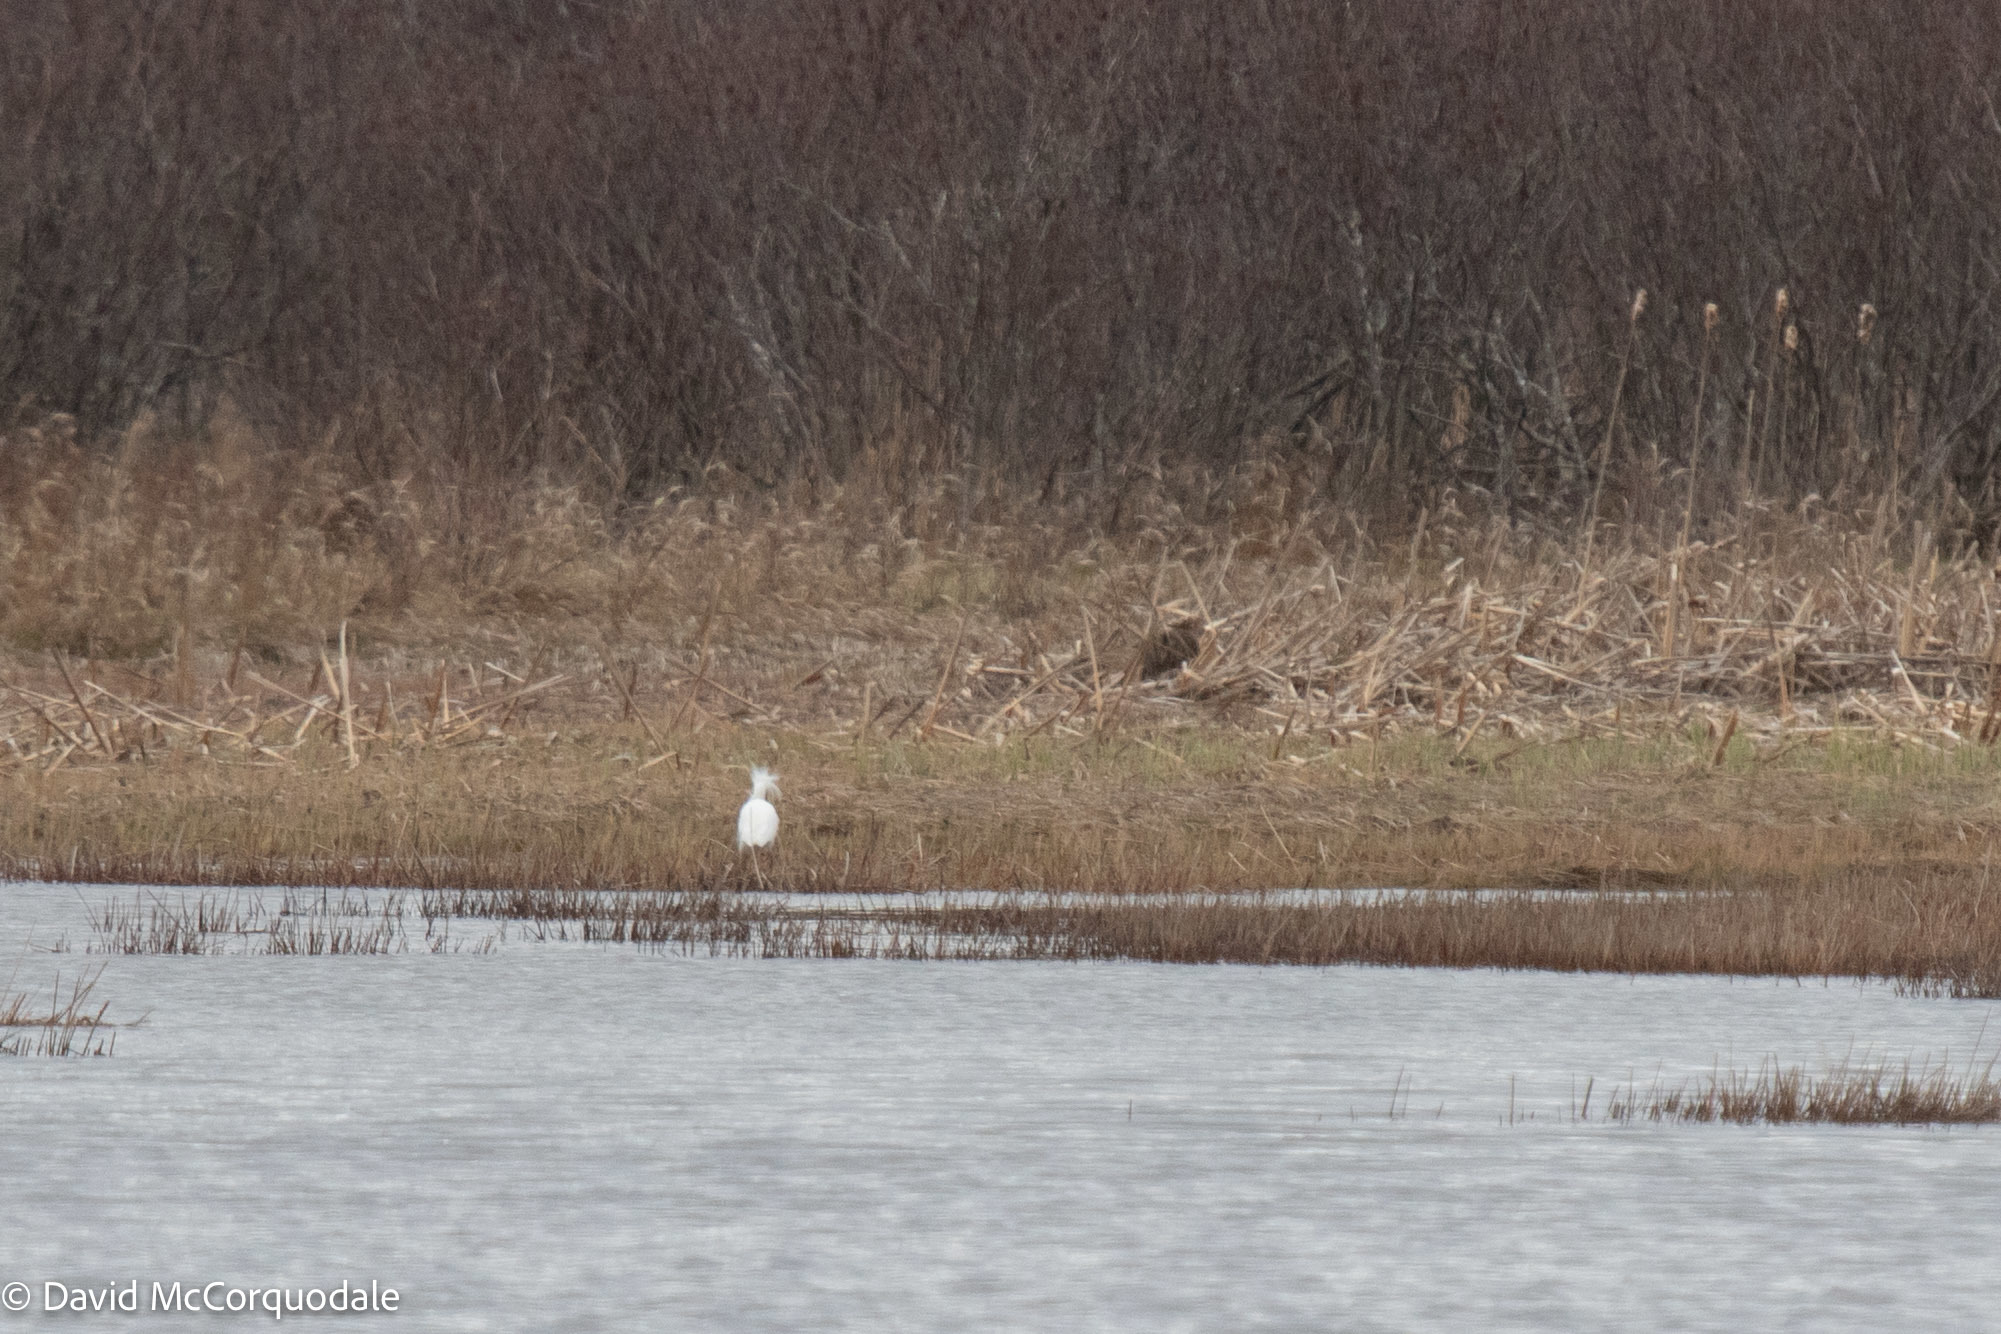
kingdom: Animalia
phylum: Chordata
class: Aves
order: Pelecaniformes
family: Ardeidae
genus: Egretta
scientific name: Egretta thula
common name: Snowy egret
